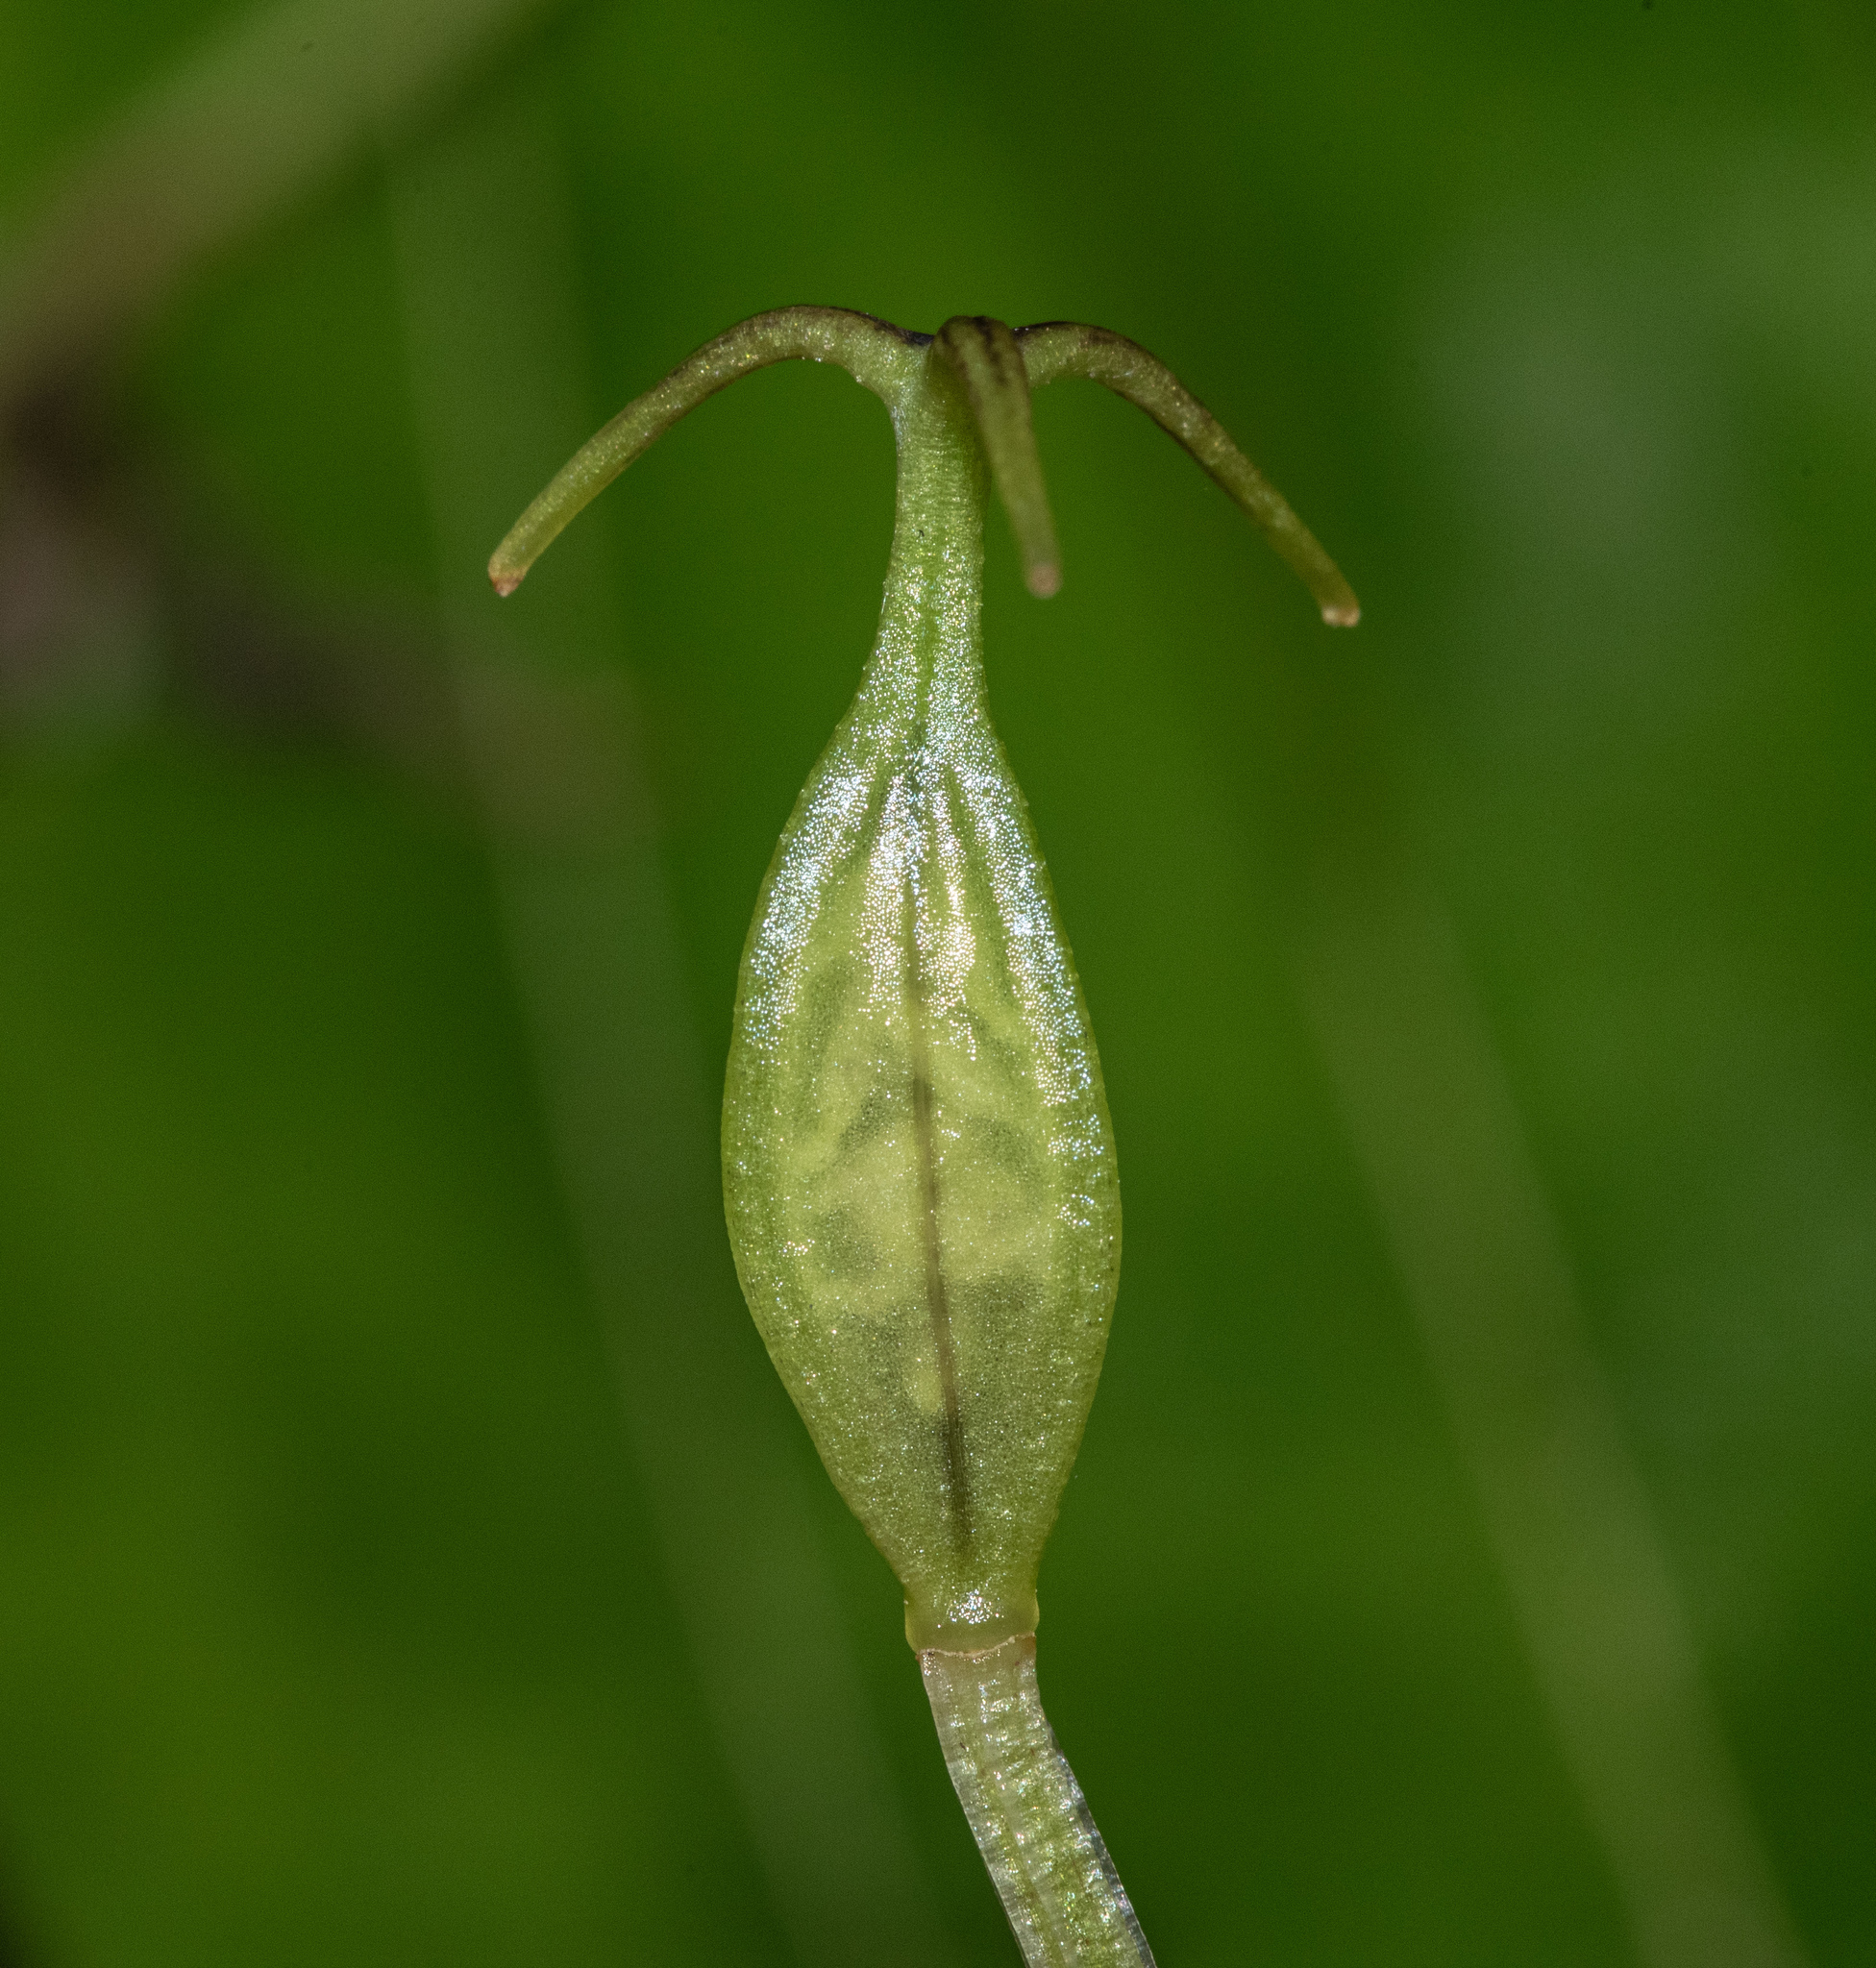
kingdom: Plantae
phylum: Tracheophyta
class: Liliopsida
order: Liliales
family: Liliaceae
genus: Scoliopus
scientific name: Scoliopus bigelovii
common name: Foetid adder's-tongue
